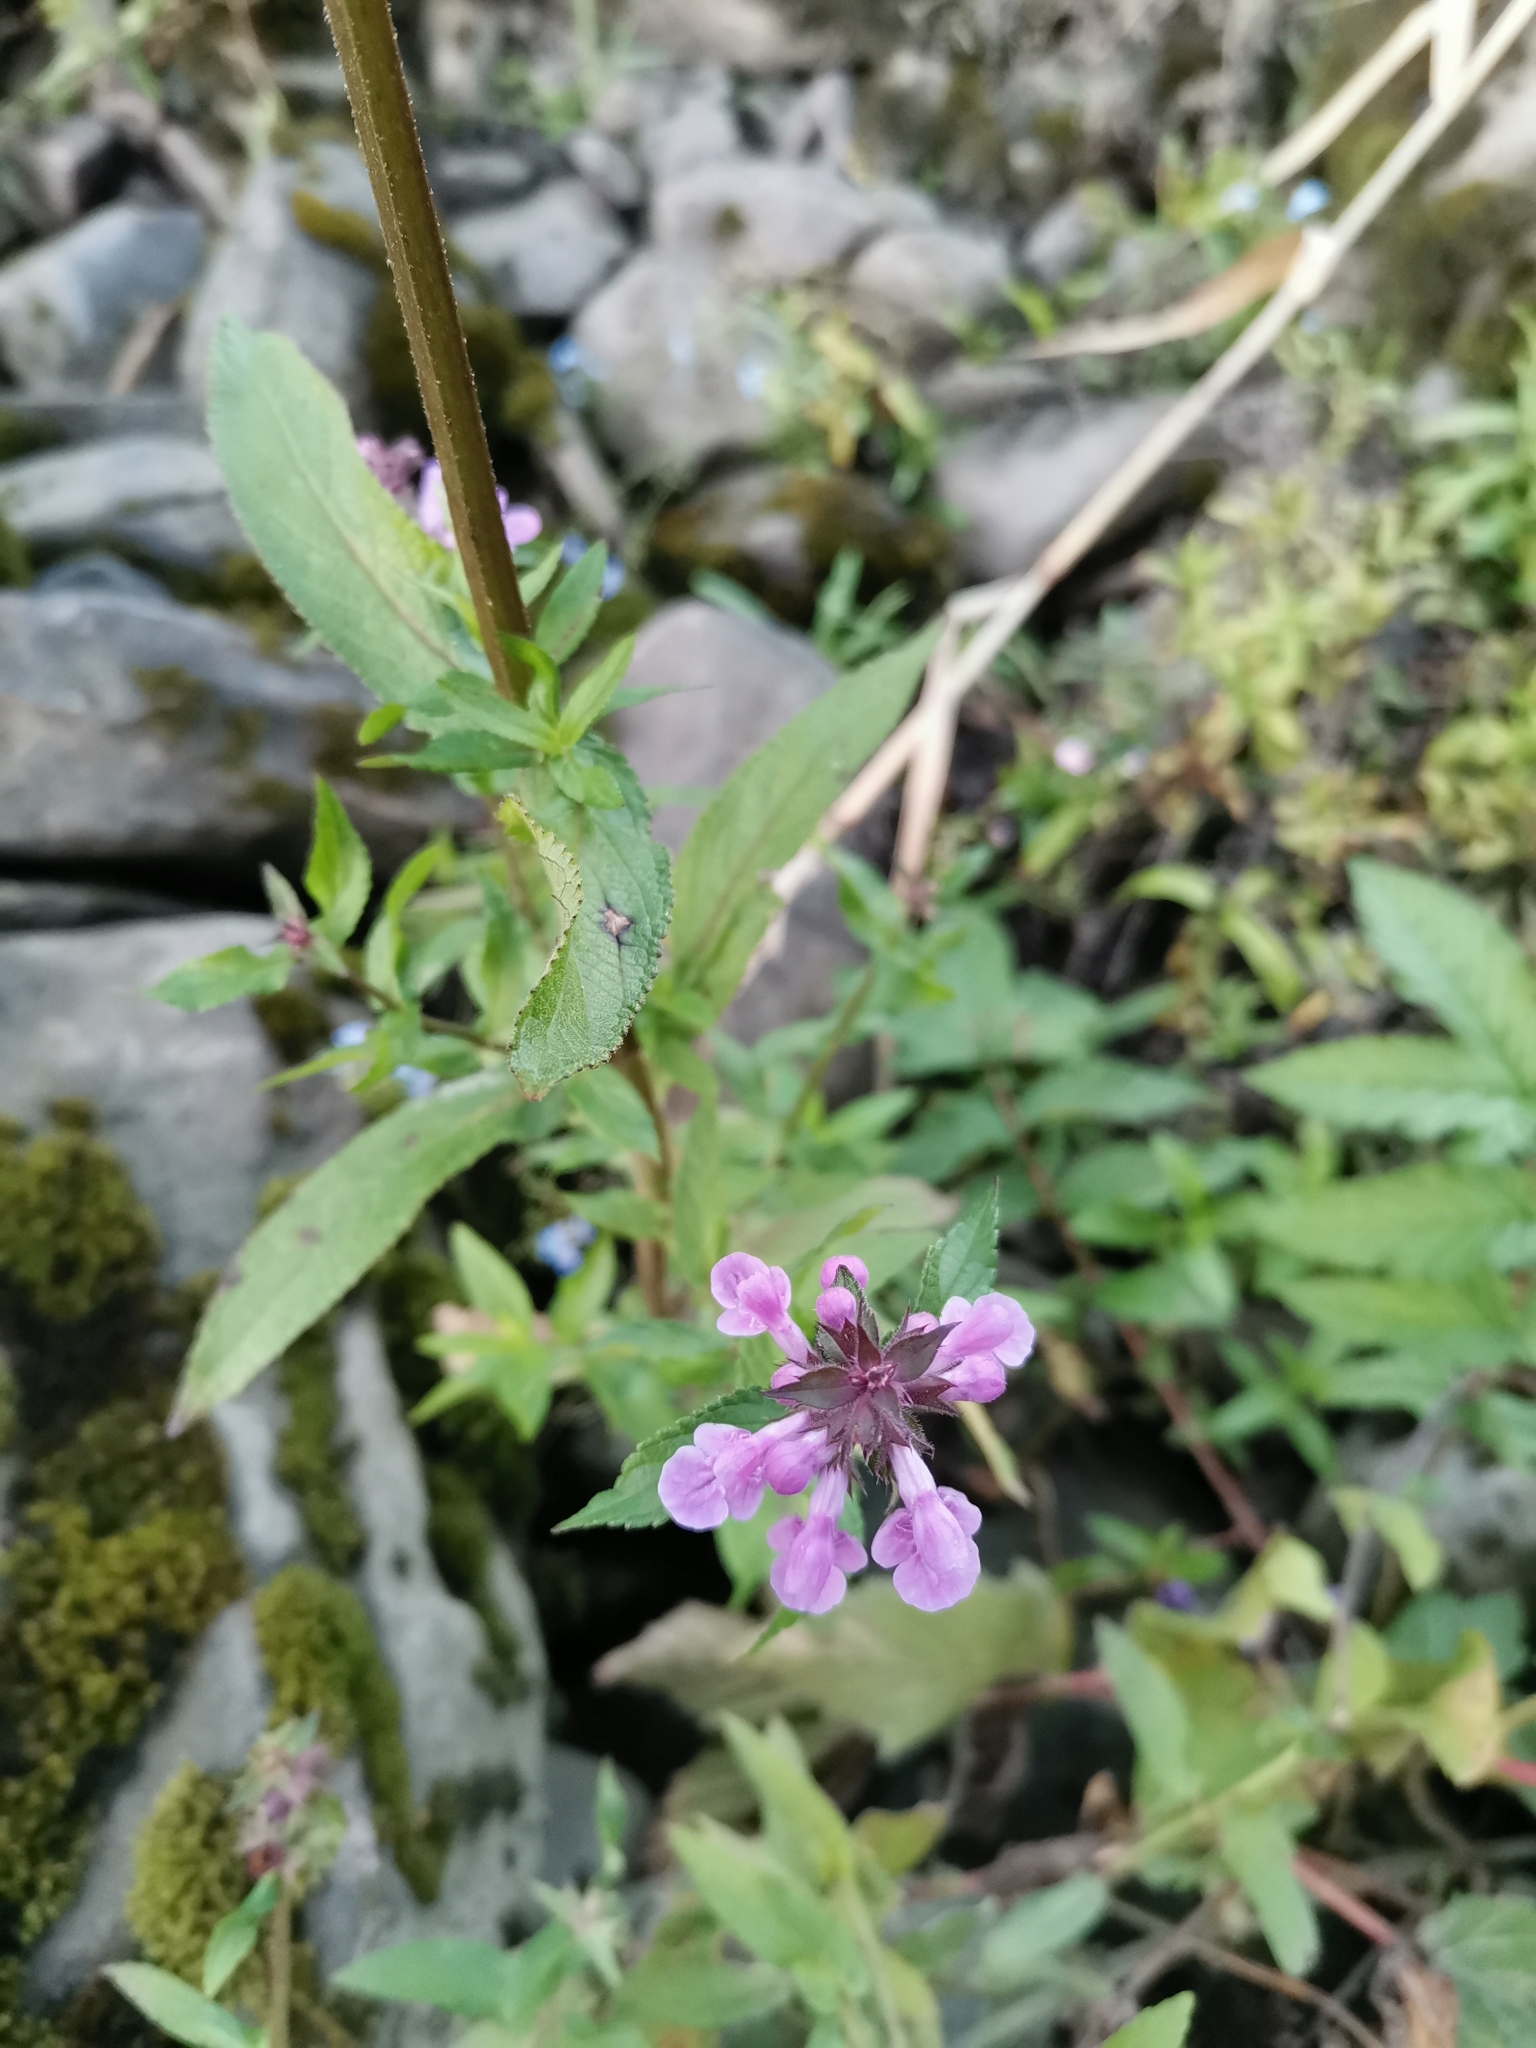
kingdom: Plantae
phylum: Tracheophyta
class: Magnoliopsida
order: Lamiales
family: Lamiaceae
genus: Stachys
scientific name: Stachys palustris
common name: Marsh woundwort
